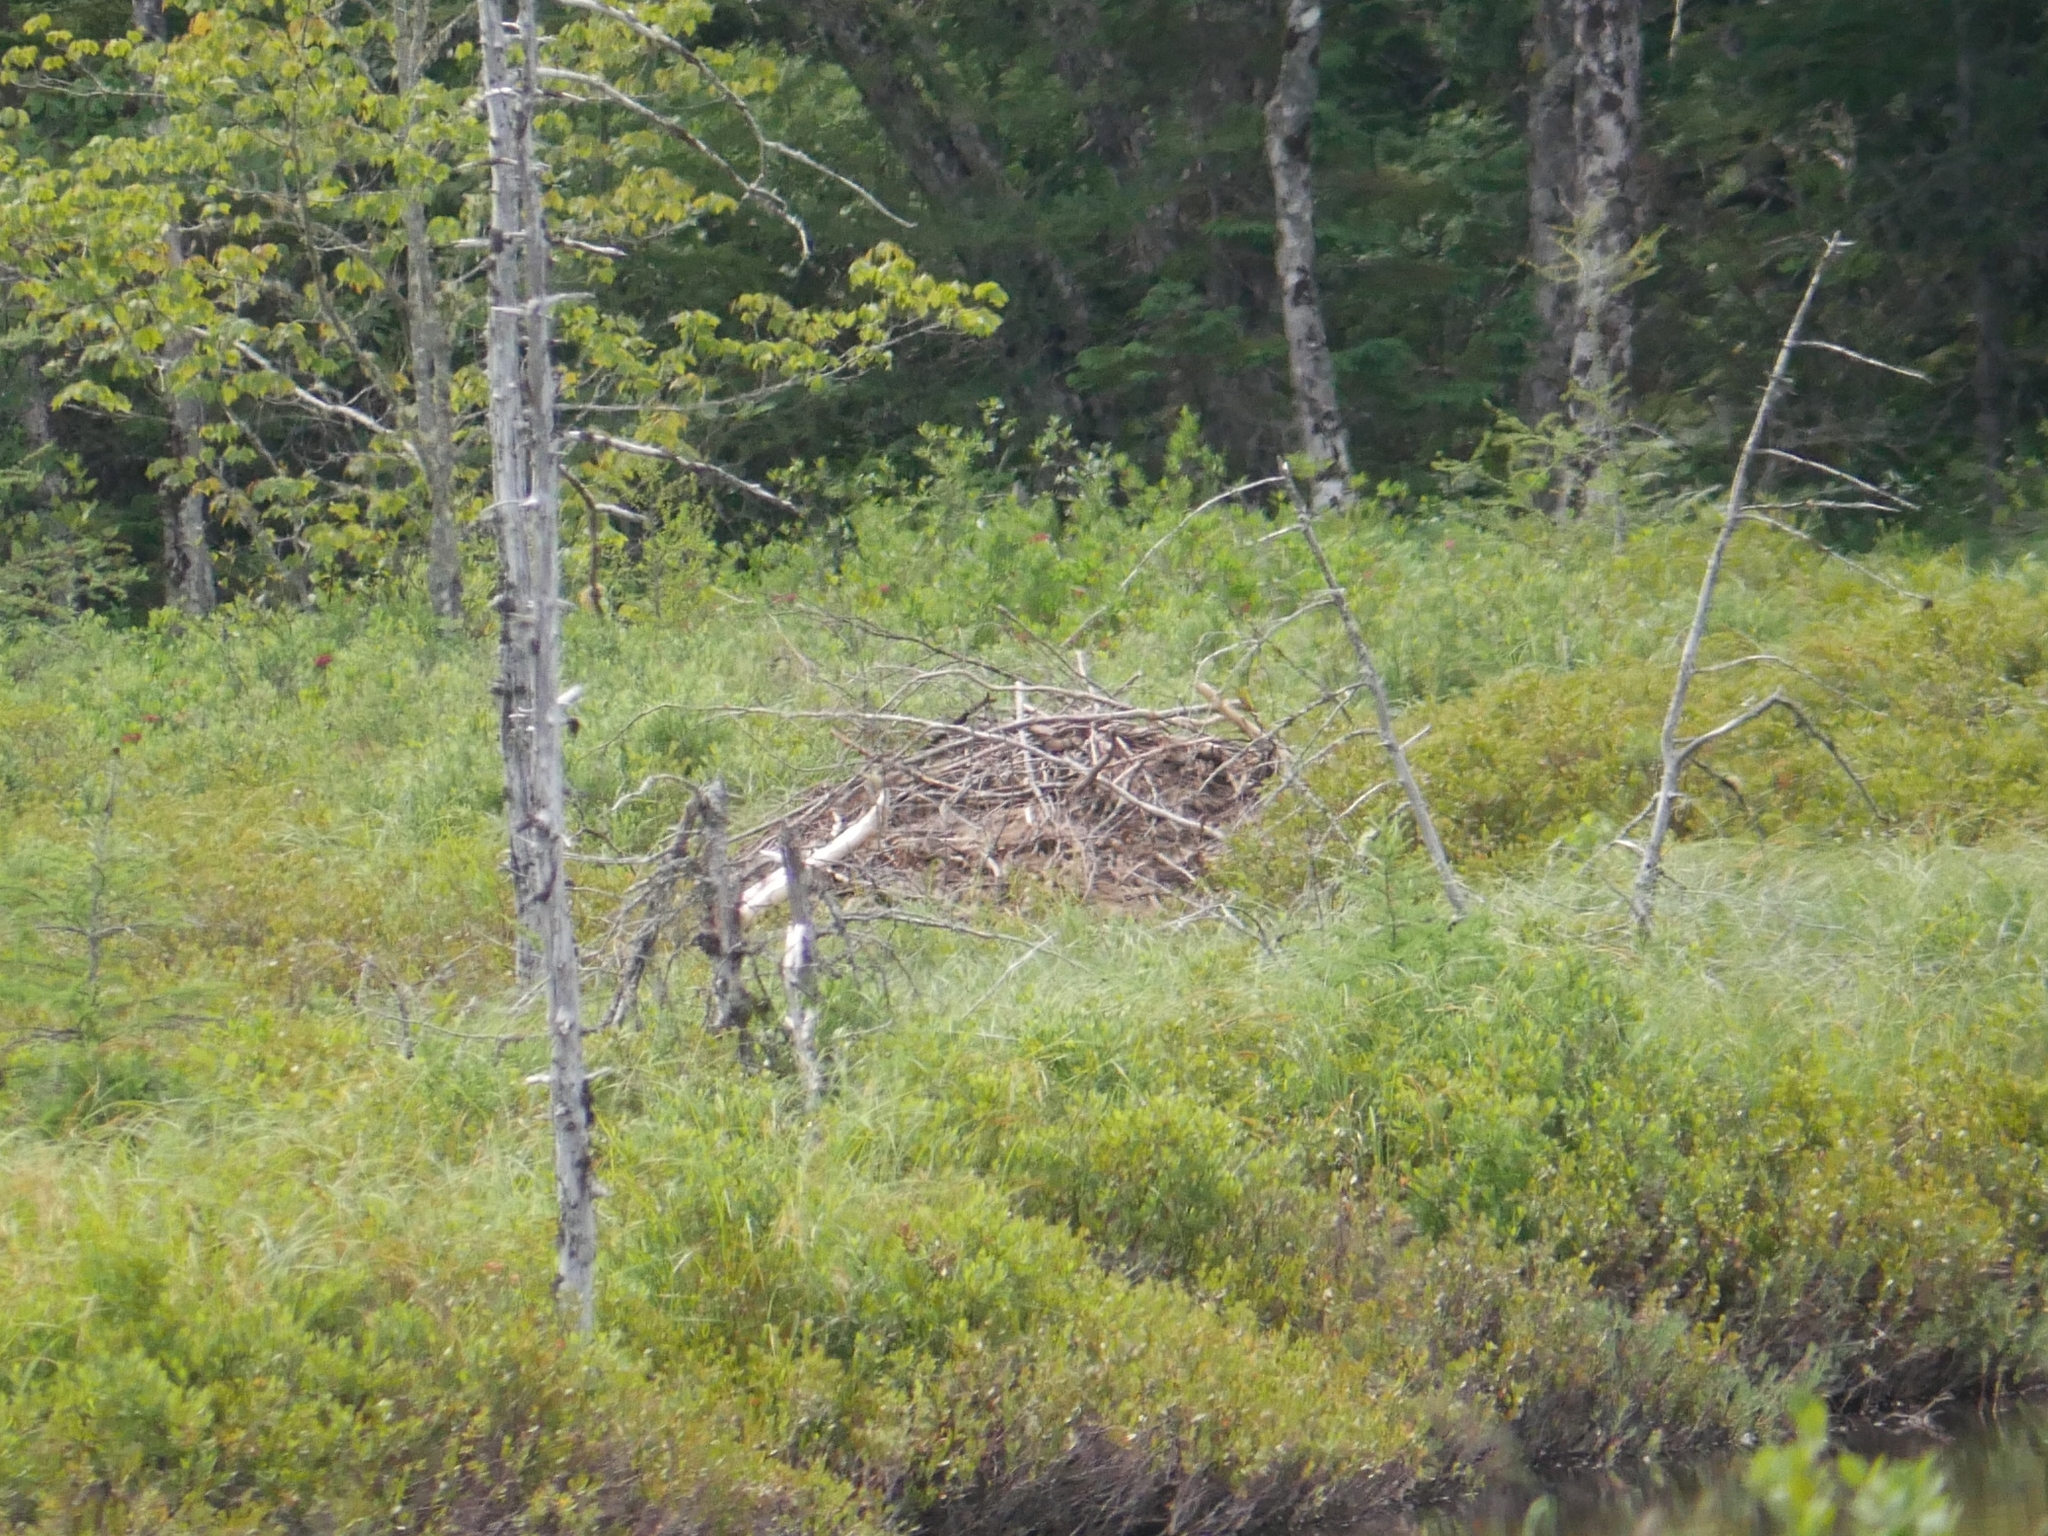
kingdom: Animalia
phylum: Chordata
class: Mammalia
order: Rodentia
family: Castoridae
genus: Castor
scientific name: Castor canadensis
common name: American beaver
